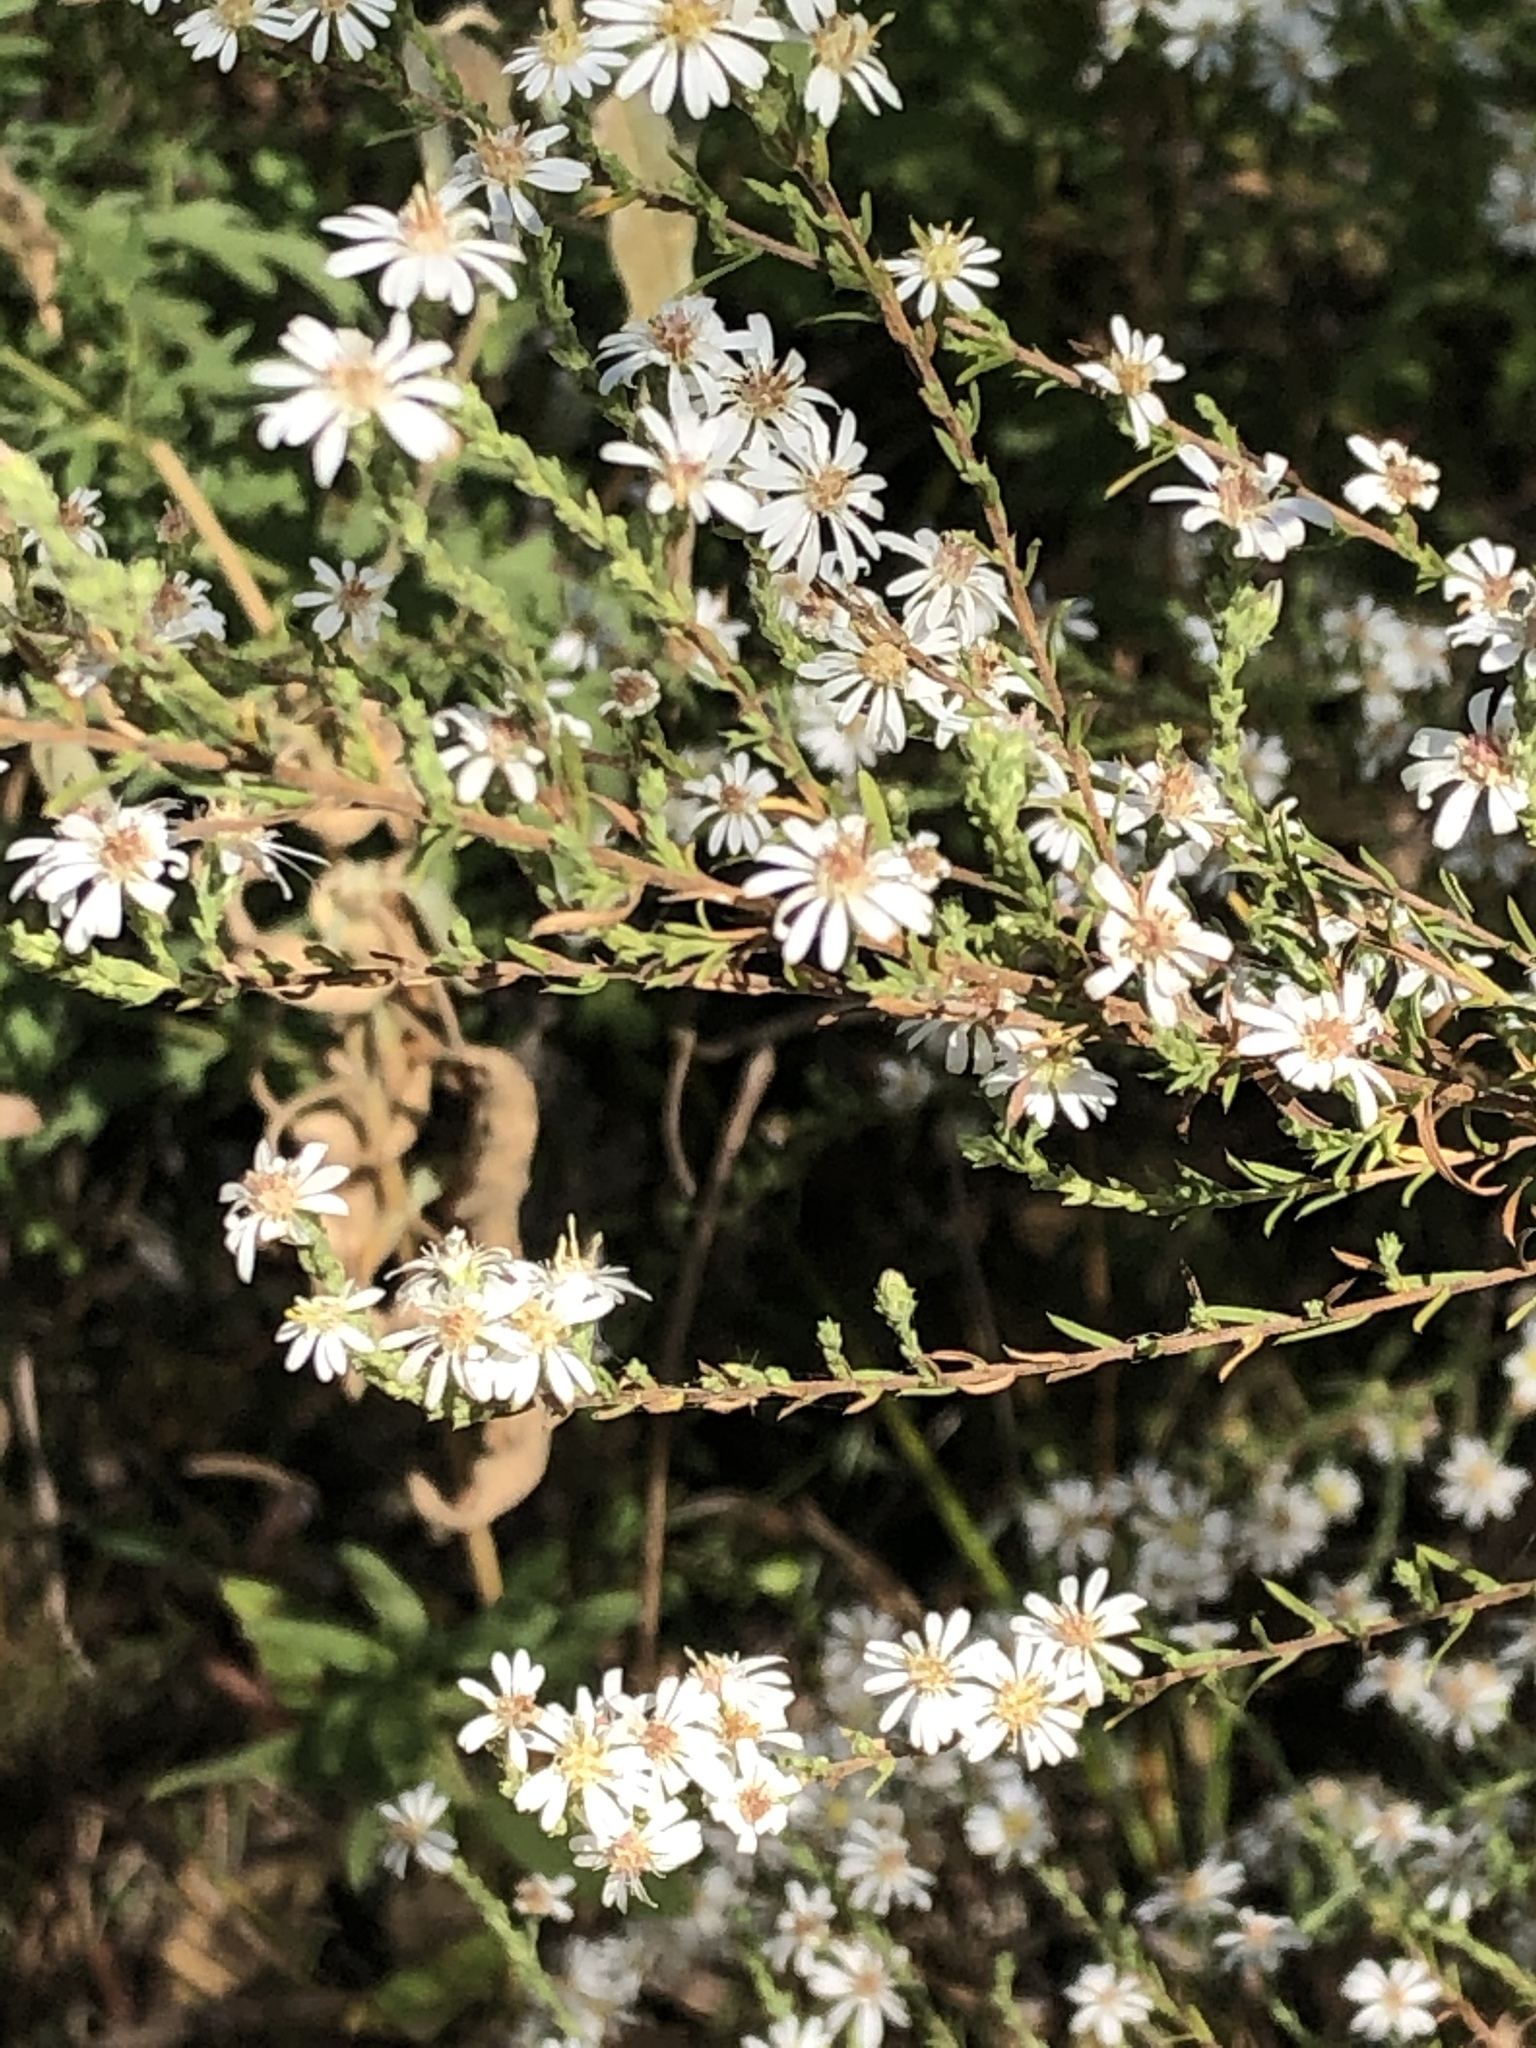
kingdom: Plantae
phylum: Tracheophyta
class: Magnoliopsida
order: Asterales
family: Asteraceae
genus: Symphyotrichum
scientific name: Symphyotrichum ericoides
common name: Heath aster
